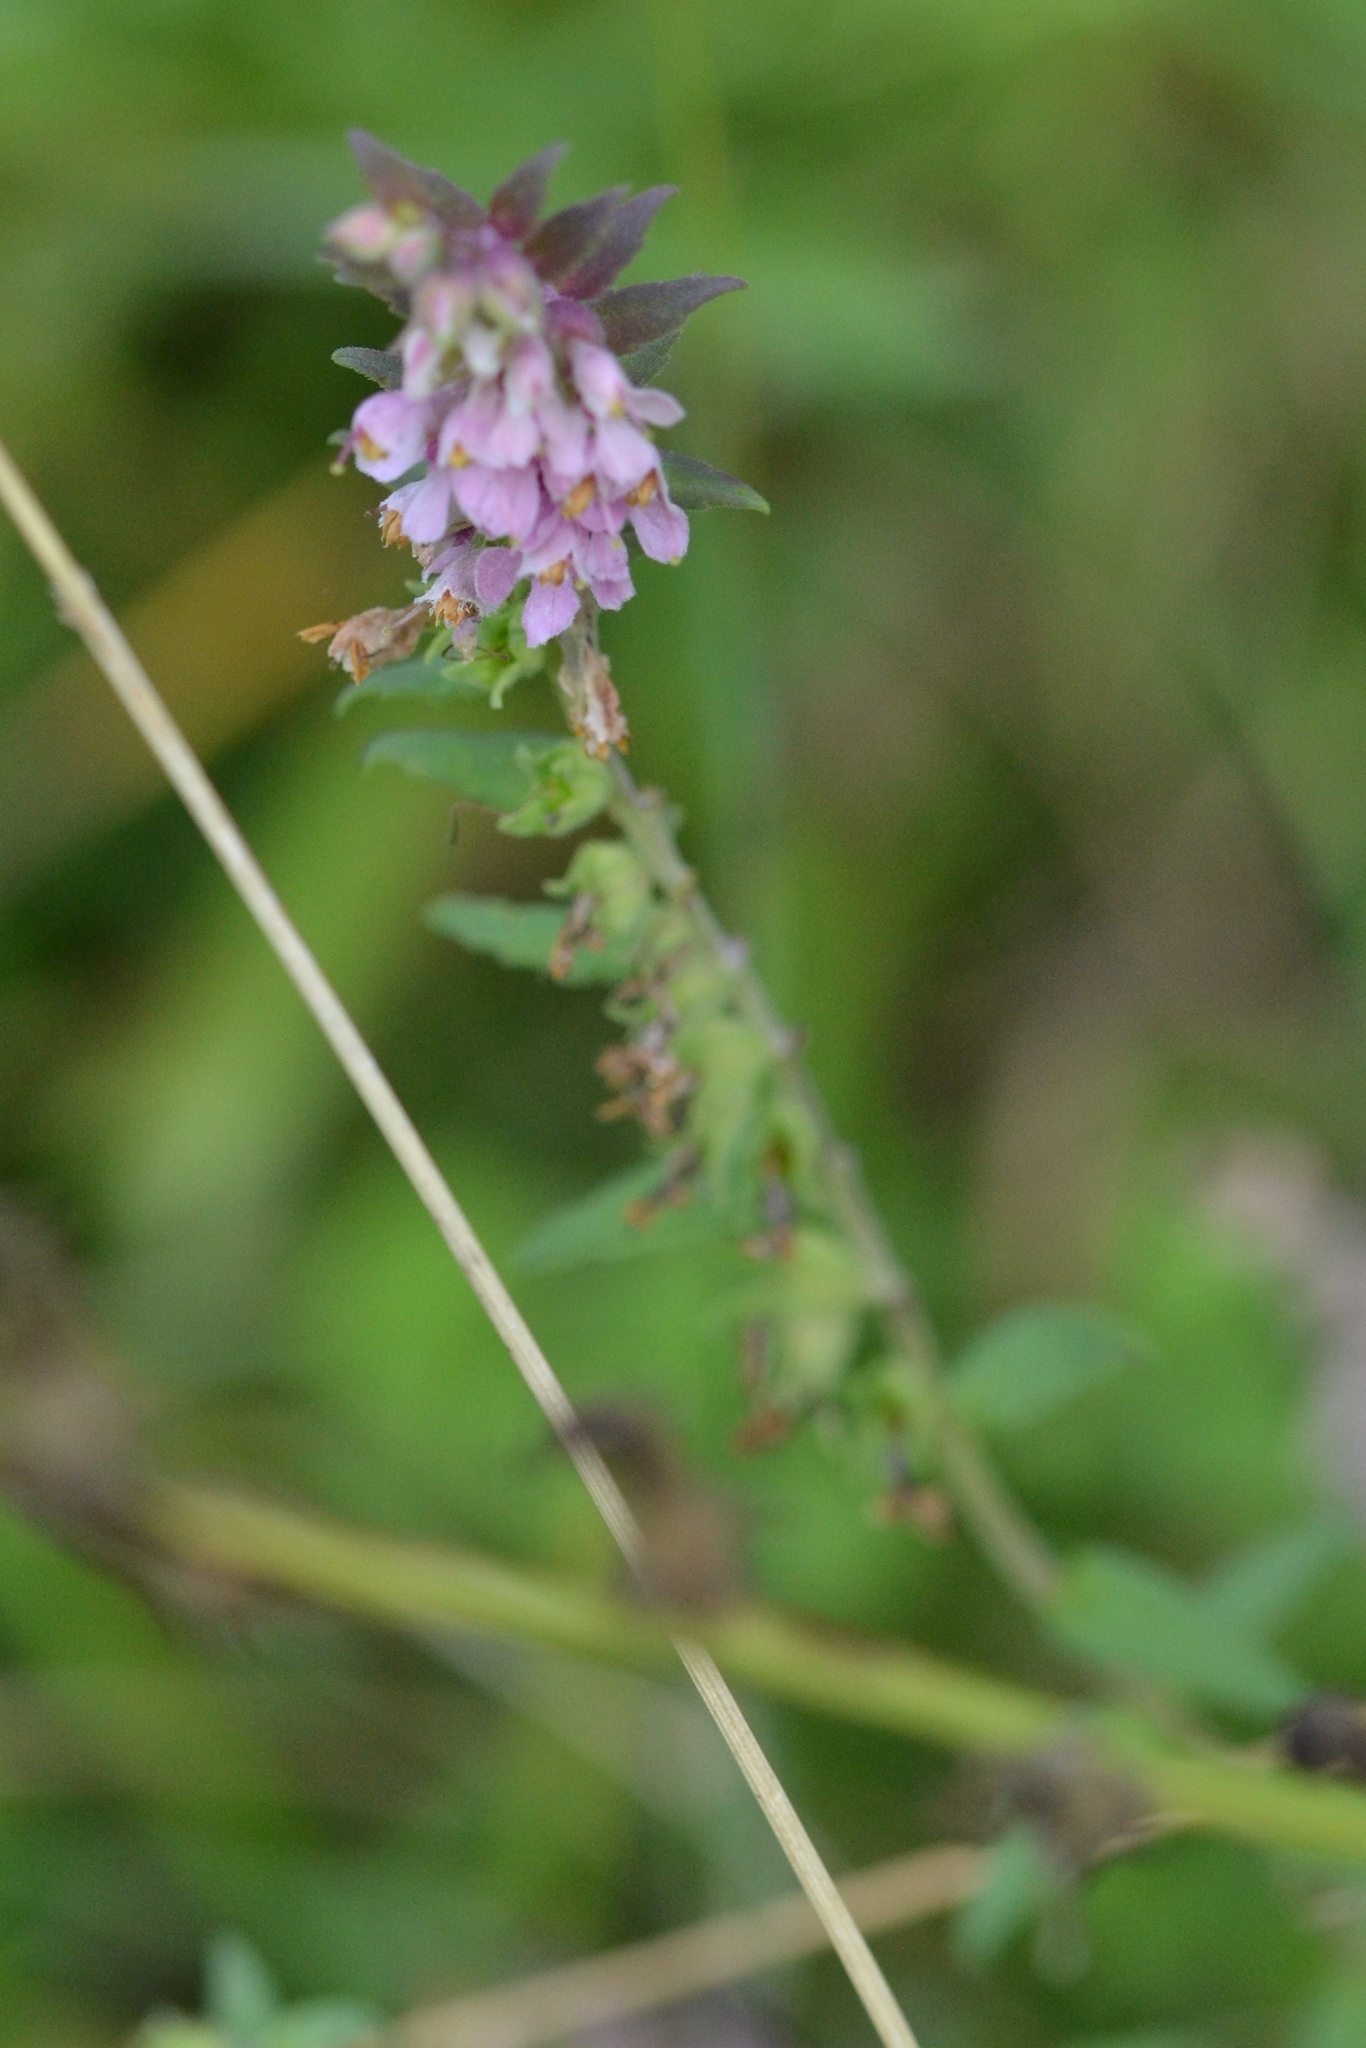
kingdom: Plantae
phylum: Tracheophyta
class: Magnoliopsida
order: Lamiales
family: Orobanchaceae
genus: Odontites
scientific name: Odontites vulgaris
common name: Broomrape
